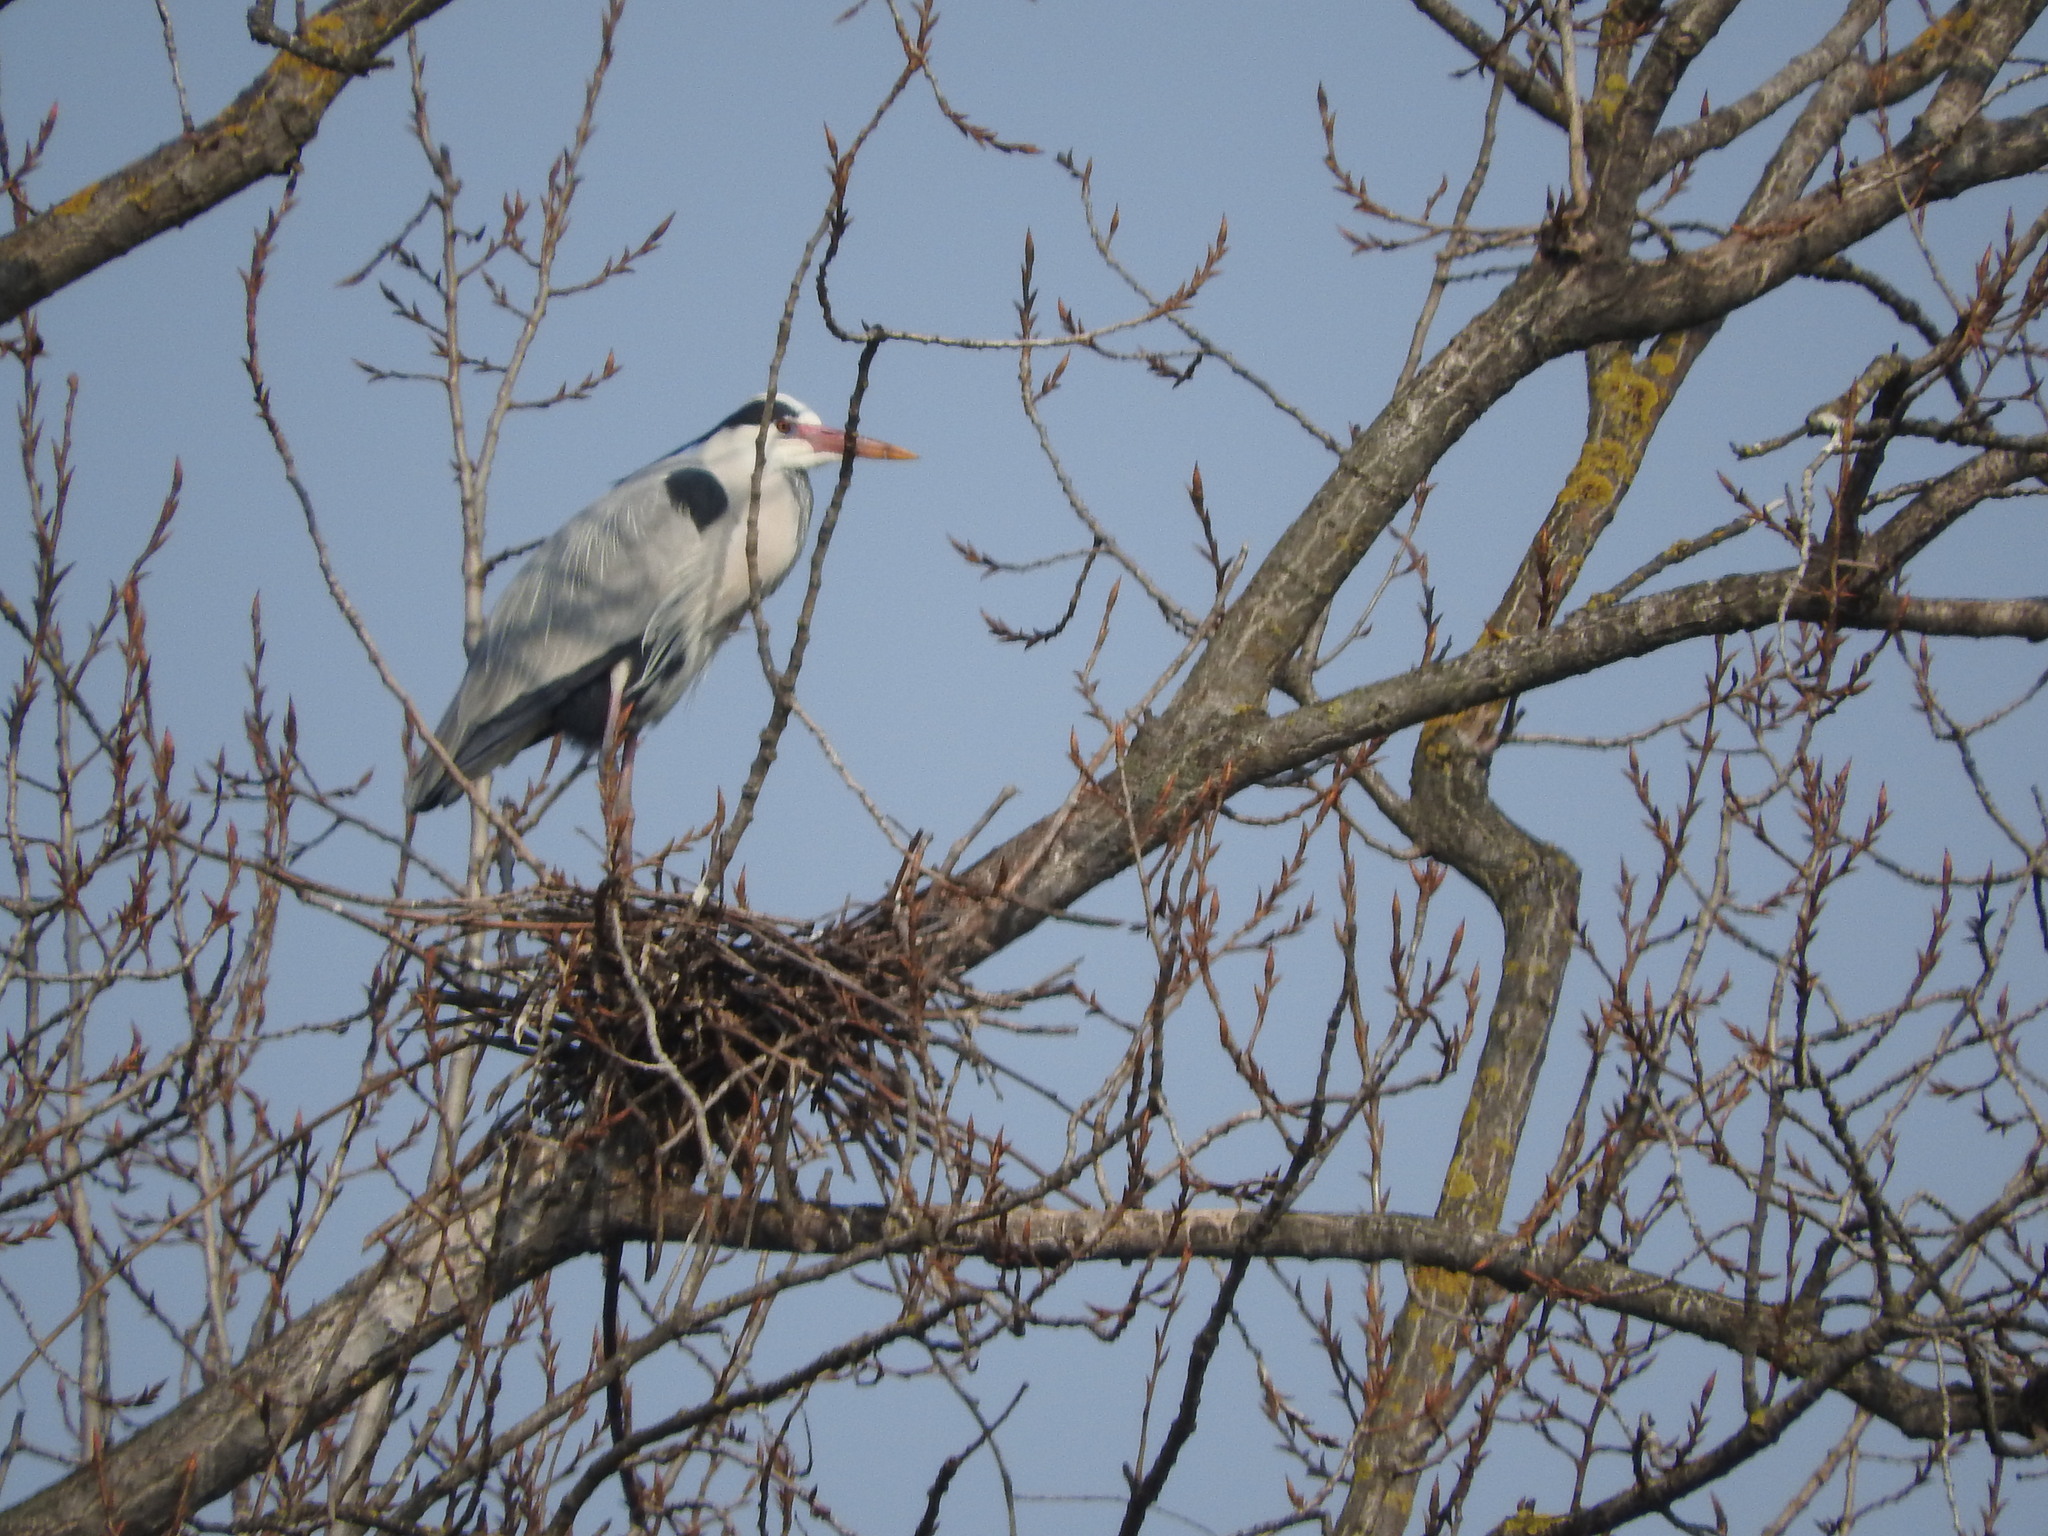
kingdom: Animalia
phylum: Chordata
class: Aves
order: Pelecaniformes
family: Ardeidae
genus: Ardea
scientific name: Ardea cinerea
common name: Grey heron
